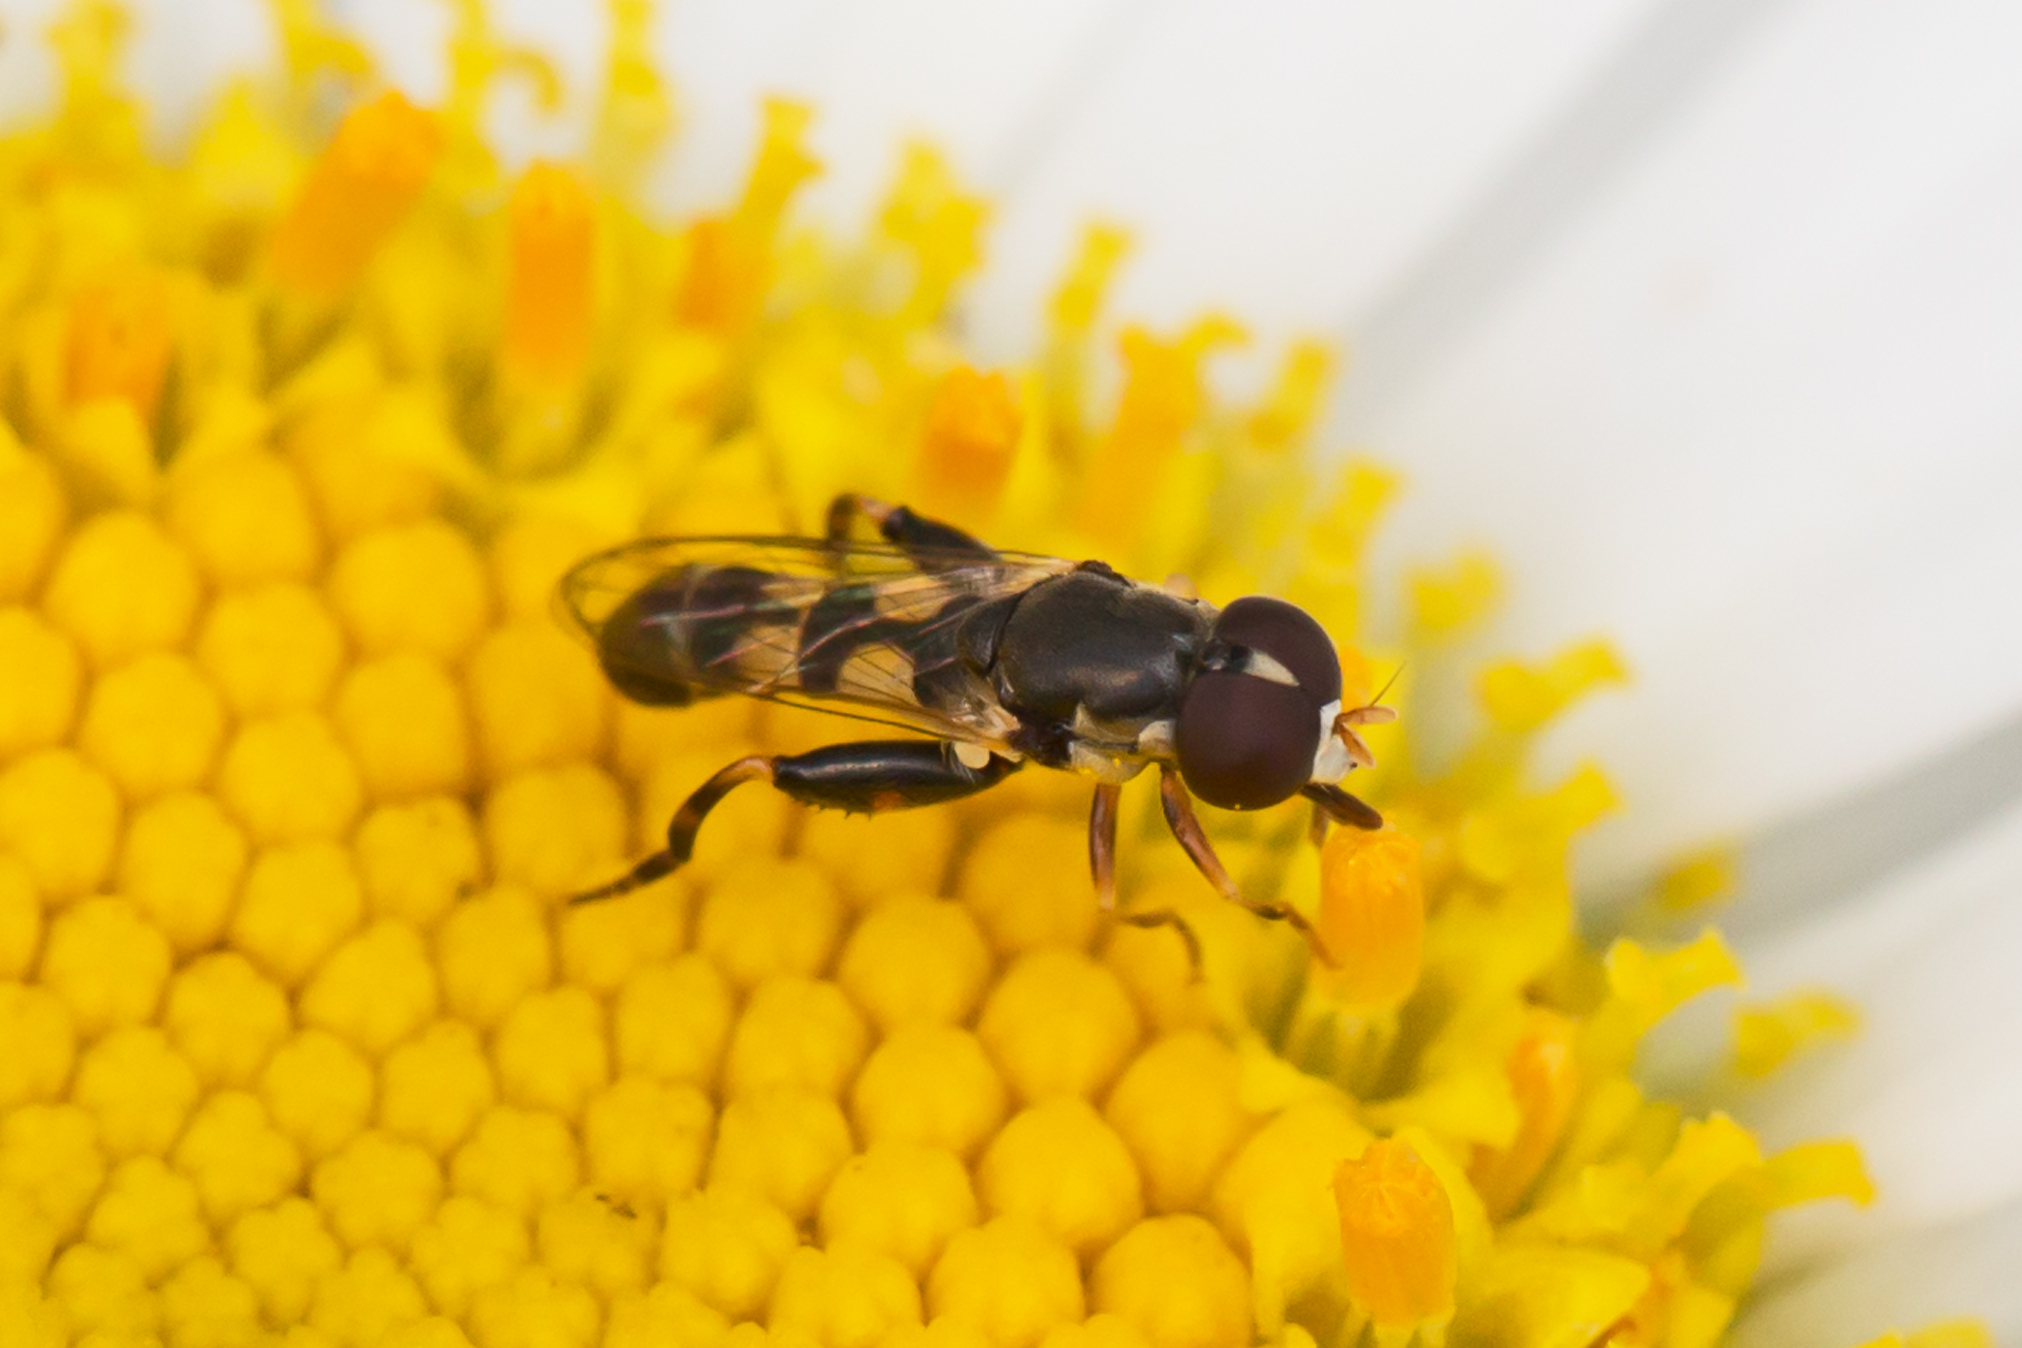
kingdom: Animalia
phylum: Arthropoda
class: Insecta
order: Diptera
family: Syrphidae
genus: Syritta
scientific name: Syritta pipiens
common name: Hover fly
